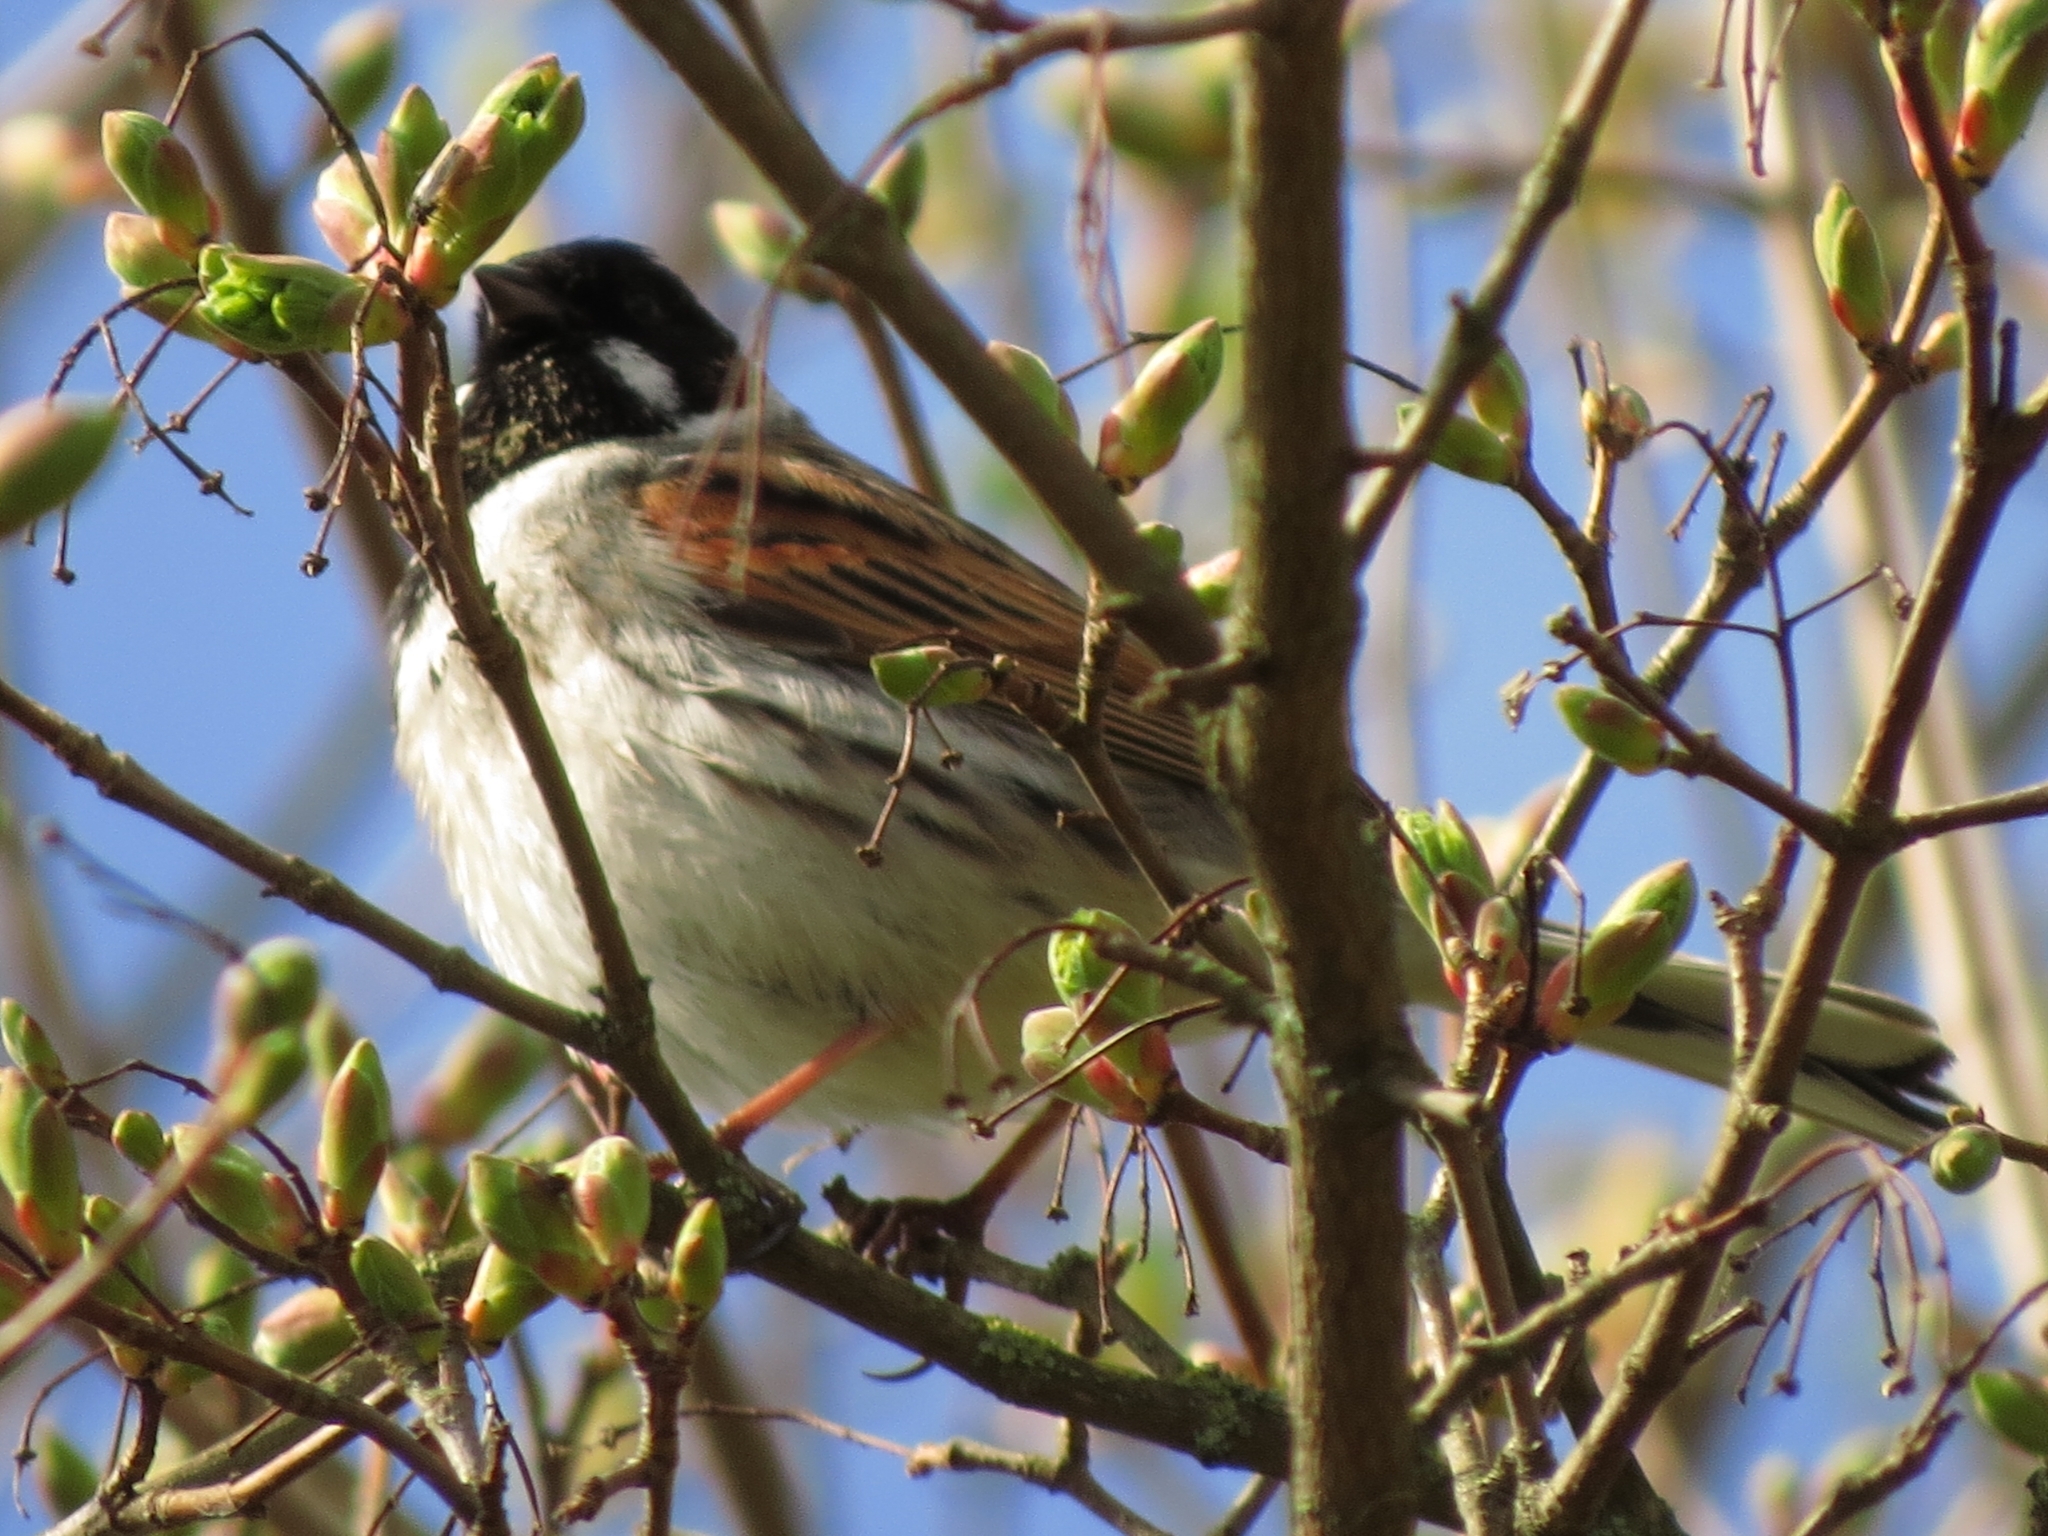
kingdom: Animalia
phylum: Chordata
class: Aves
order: Passeriformes
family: Emberizidae
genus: Emberiza
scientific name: Emberiza schoeniclus
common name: Reed bunting
